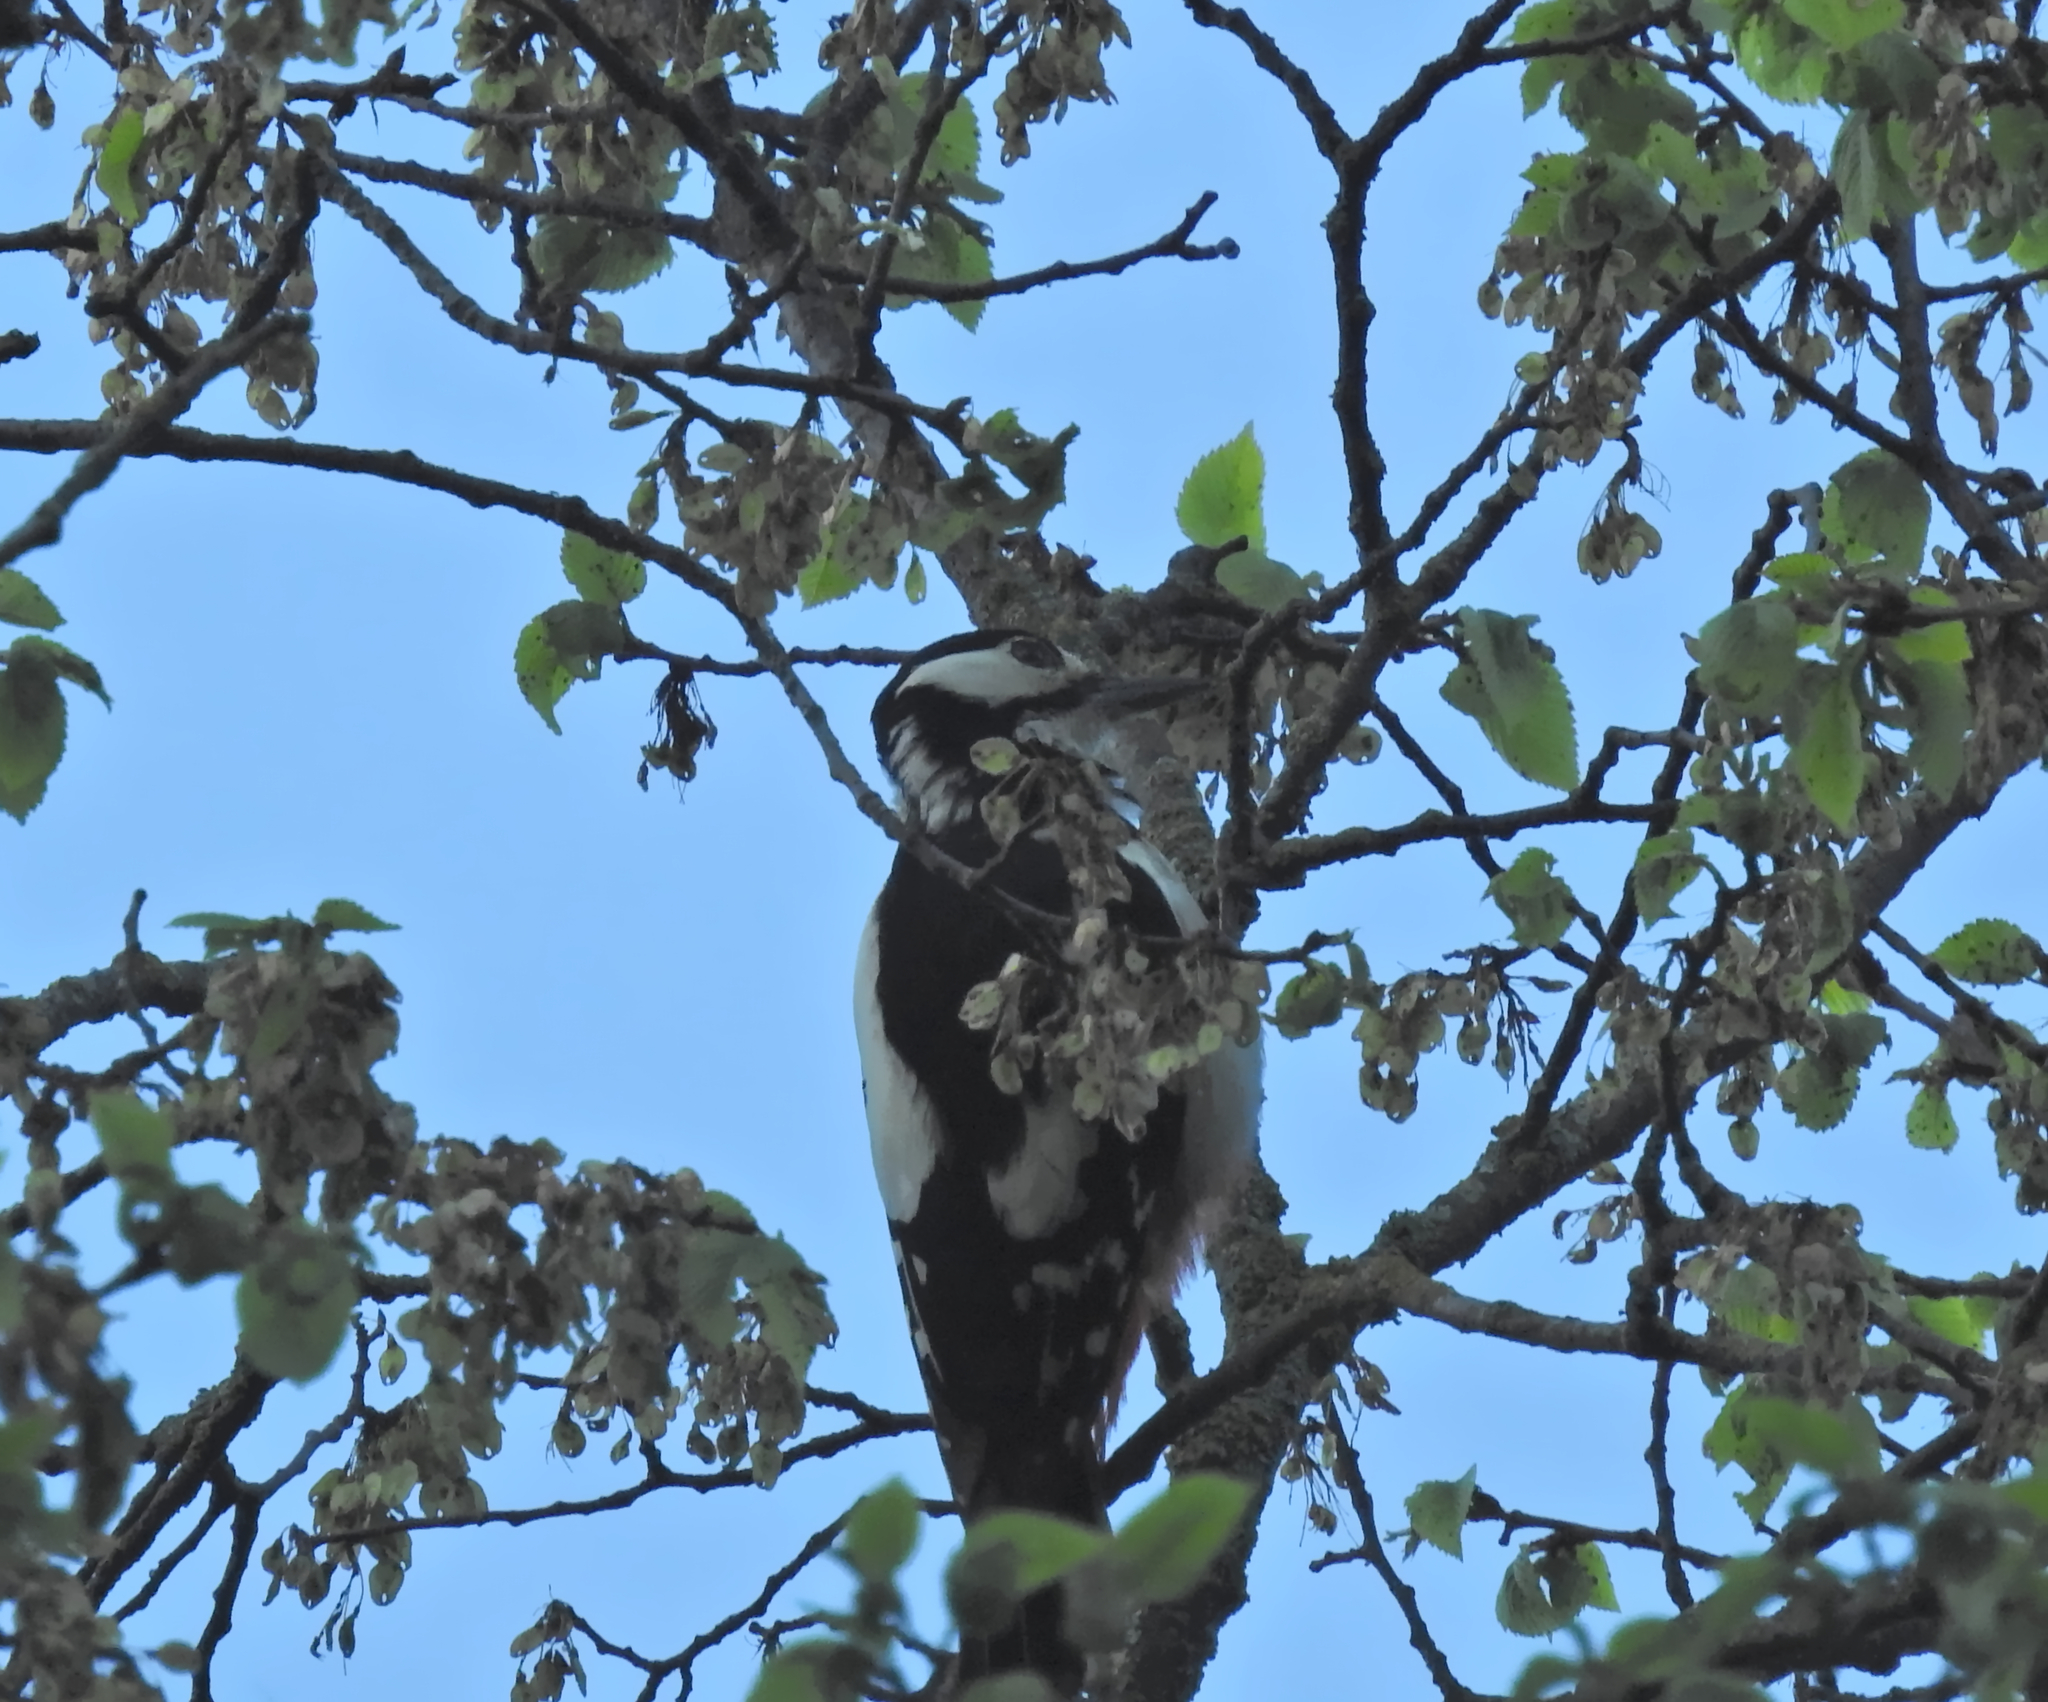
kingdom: Animalia
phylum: Chordata
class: Aves
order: Piciformes
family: Picidae
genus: Dendrocopos
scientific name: Dendrocopos major
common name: Great spotted woodpecker
